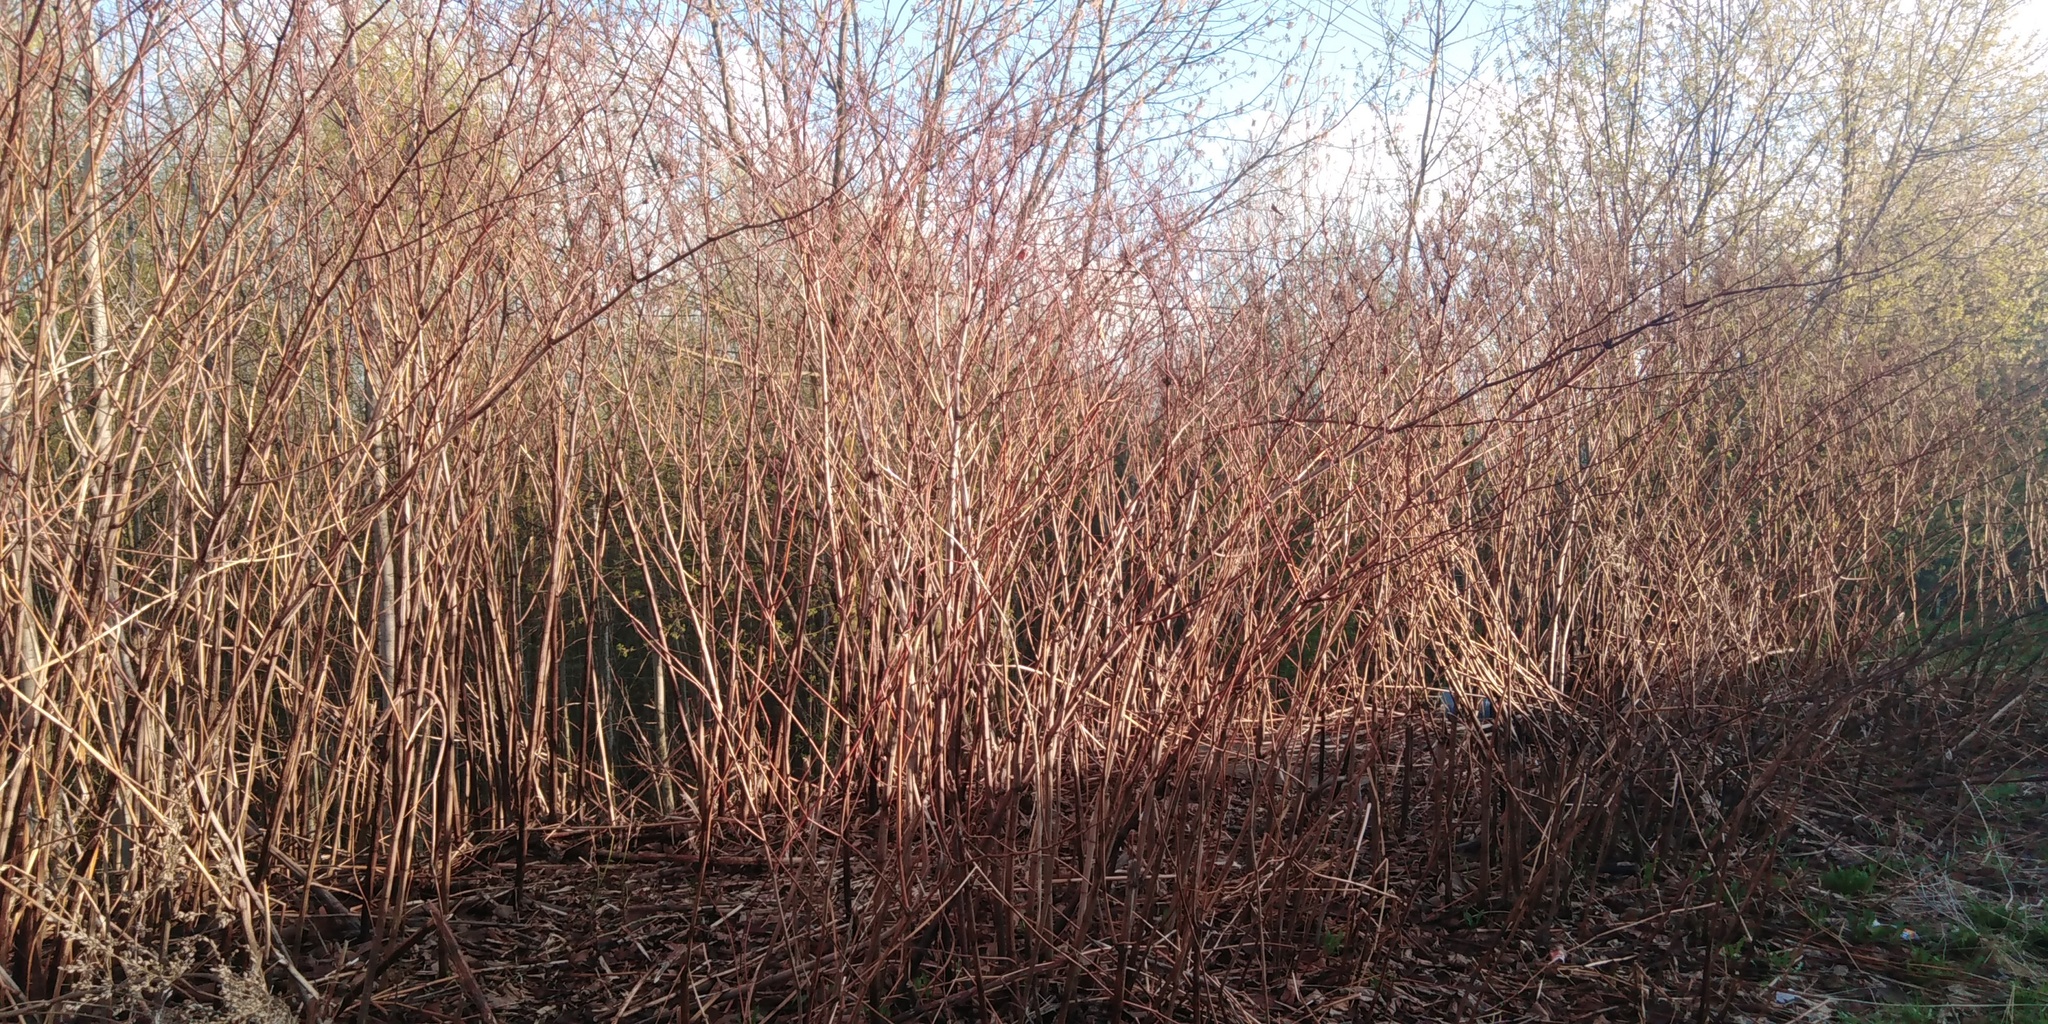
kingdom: Plantae
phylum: Tracheophyta
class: Magnoliopsida
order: Caryophyllales
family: Polygonaceae
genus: Reynoutria
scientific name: Reynoutria bohemica
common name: Bohemian knotweed
